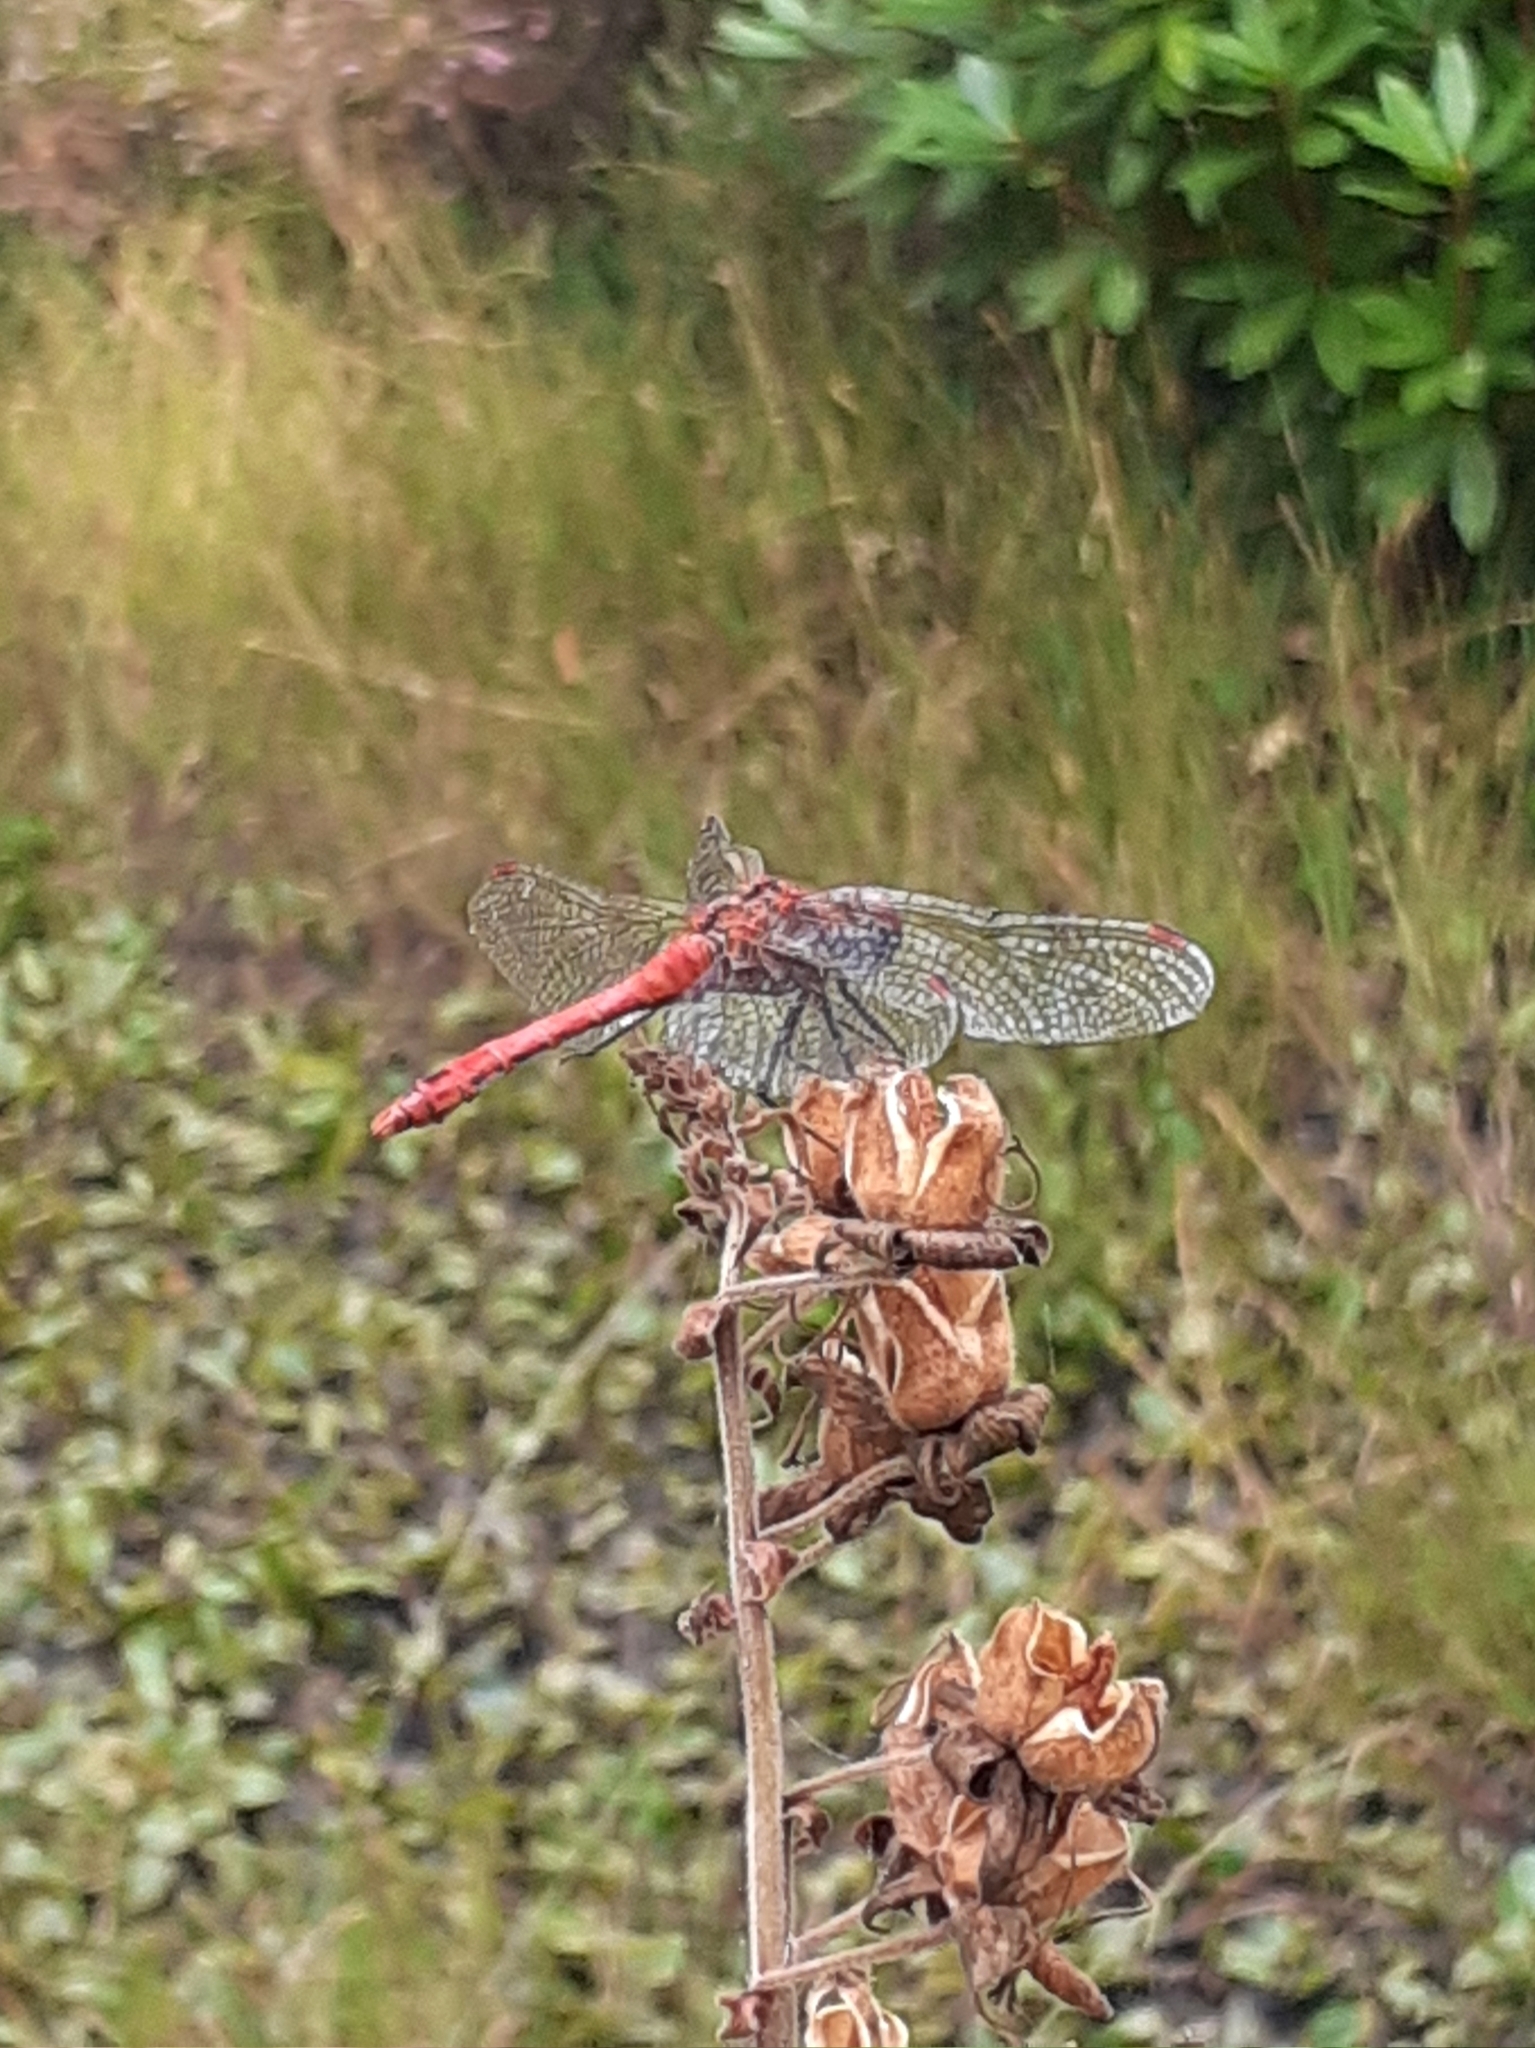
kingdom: Animalia
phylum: Arthropoda
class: Insecta
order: Odonata
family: Libellulidae
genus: Sympetrum
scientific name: Sympetrum sanguineum
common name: Ruddy darter
